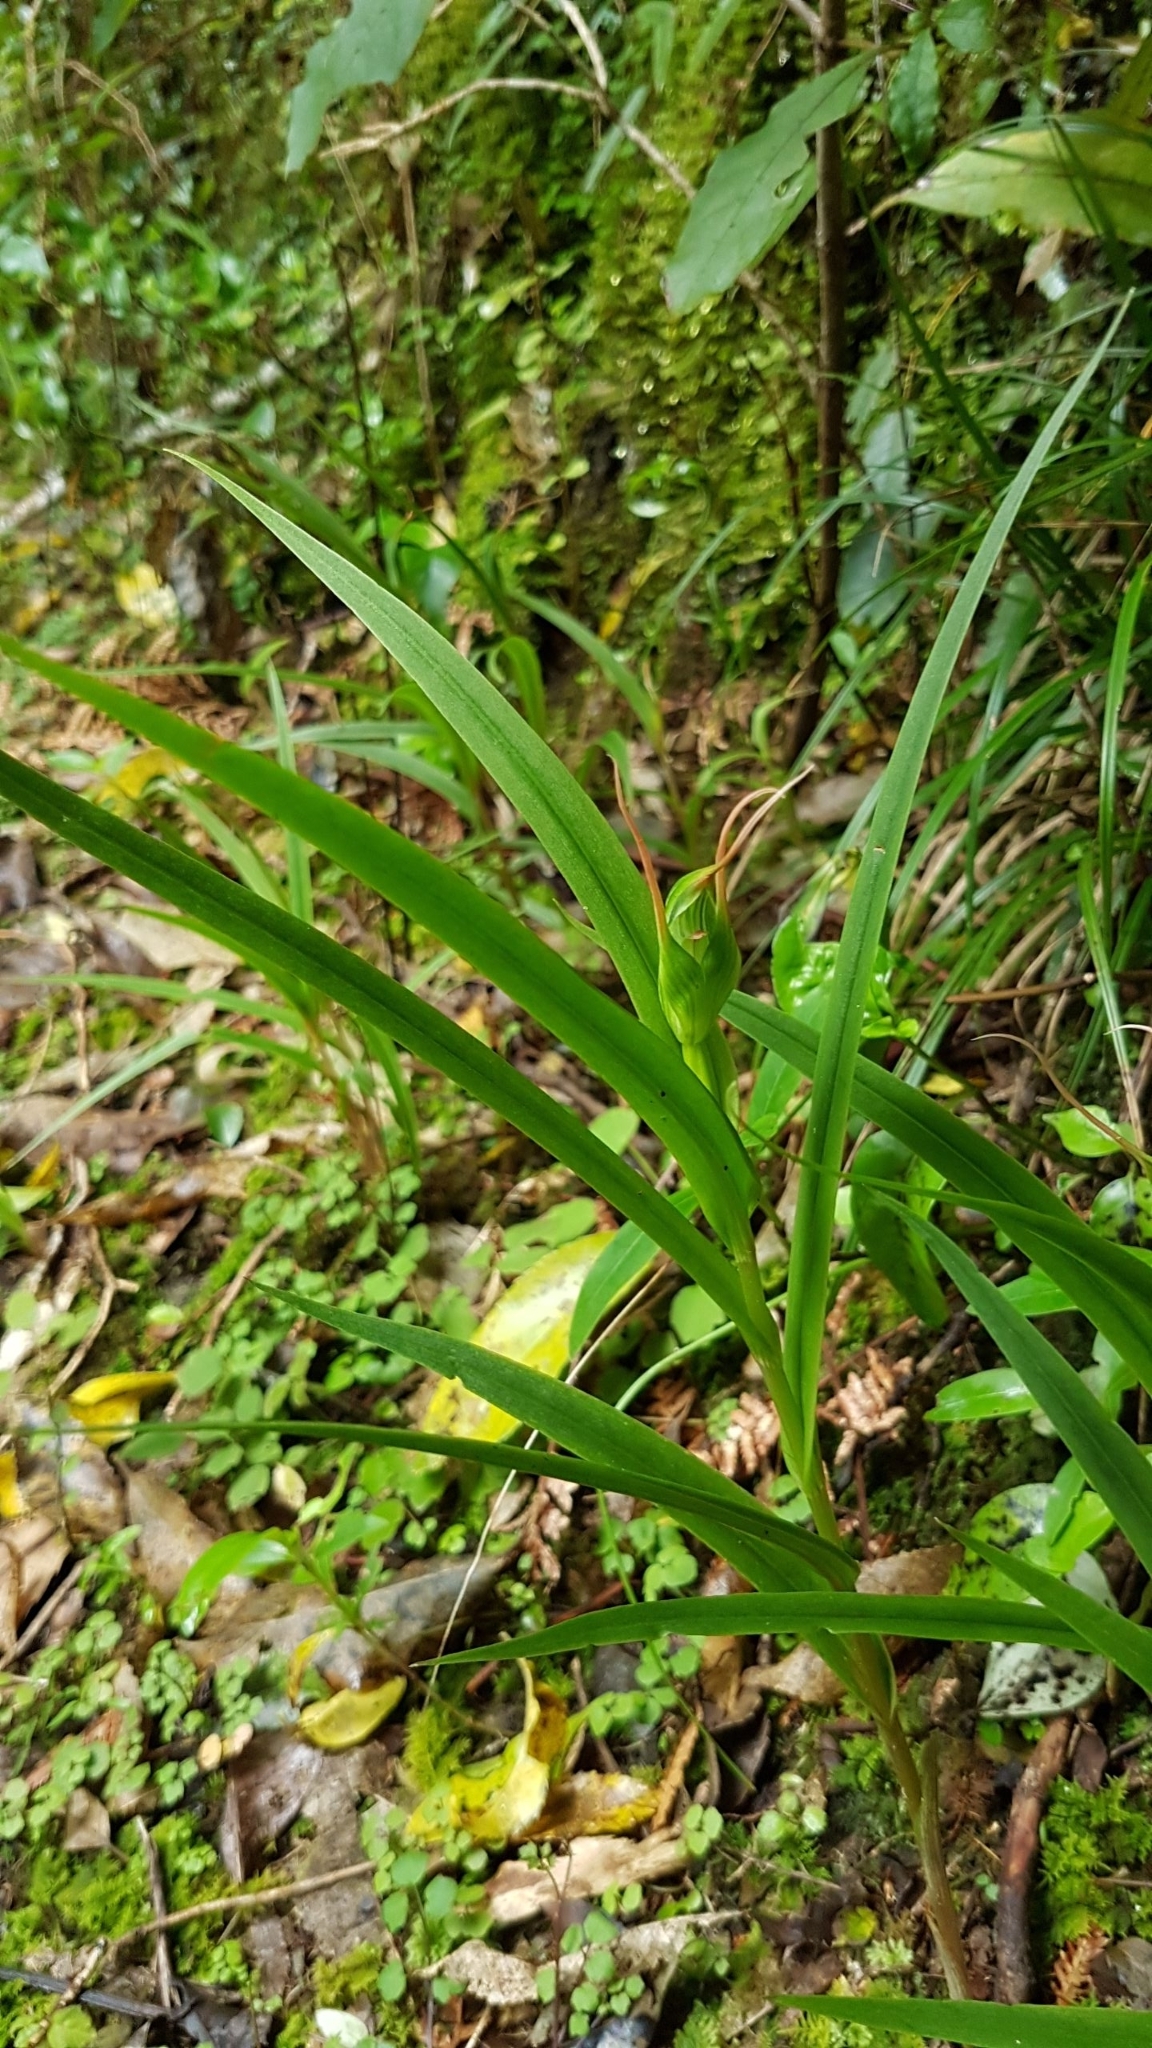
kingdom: Plantae
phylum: Tracheophyta
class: Liliopsida
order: Asparagales
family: Orchidaceae
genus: Pterostylis
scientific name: Pterostylis banksii
